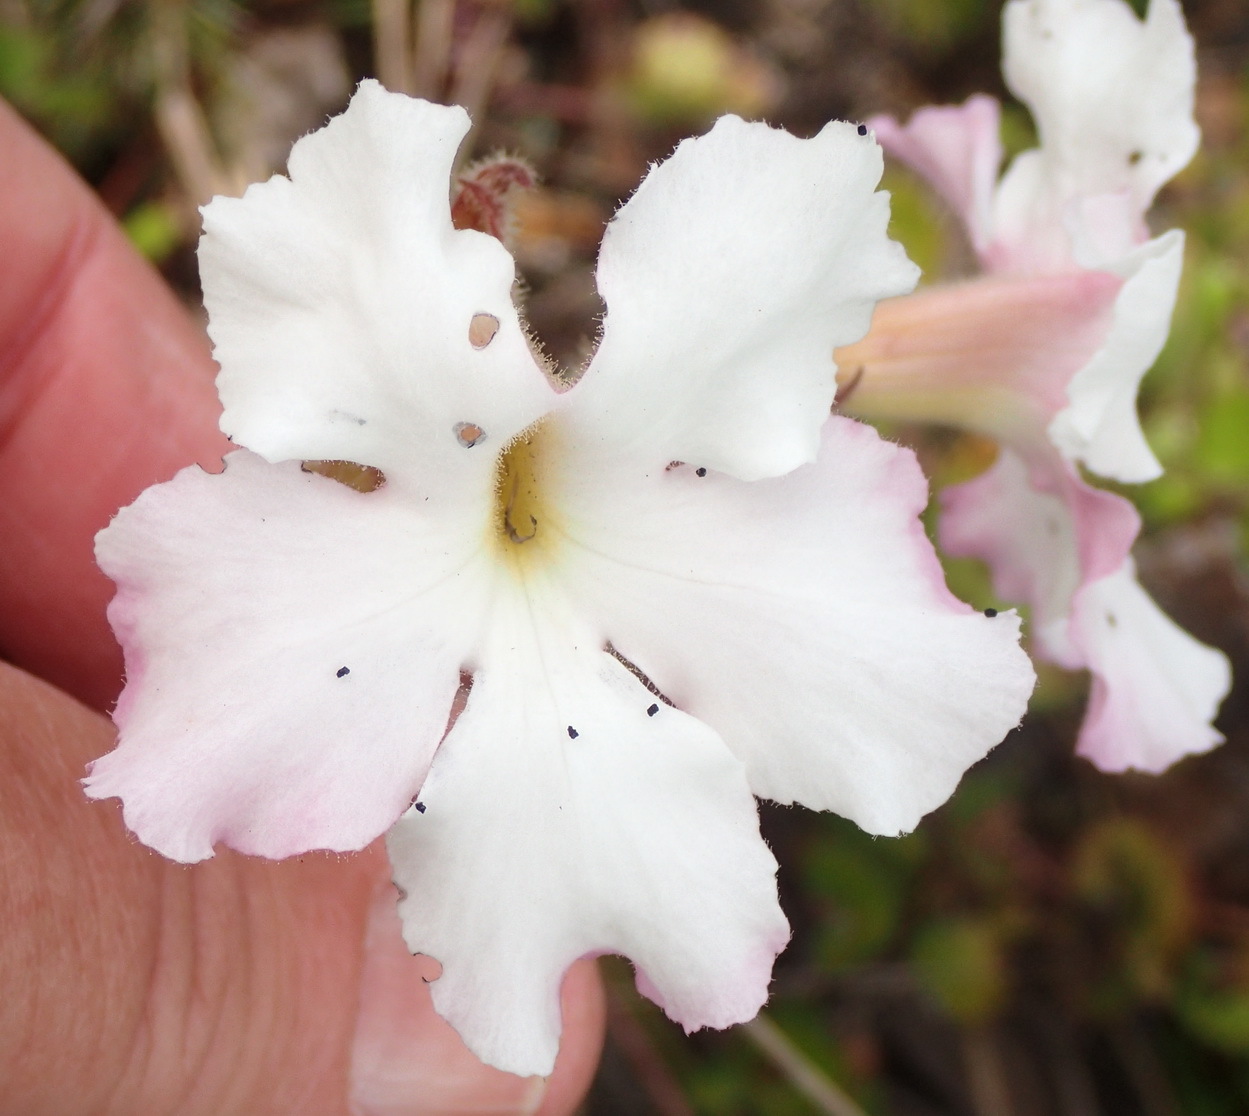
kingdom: Plantae
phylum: Tracheophyta
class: Magnoliopsida
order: Lamiales
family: Orobanchaceae
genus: Harveya
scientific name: Harveya capensis
